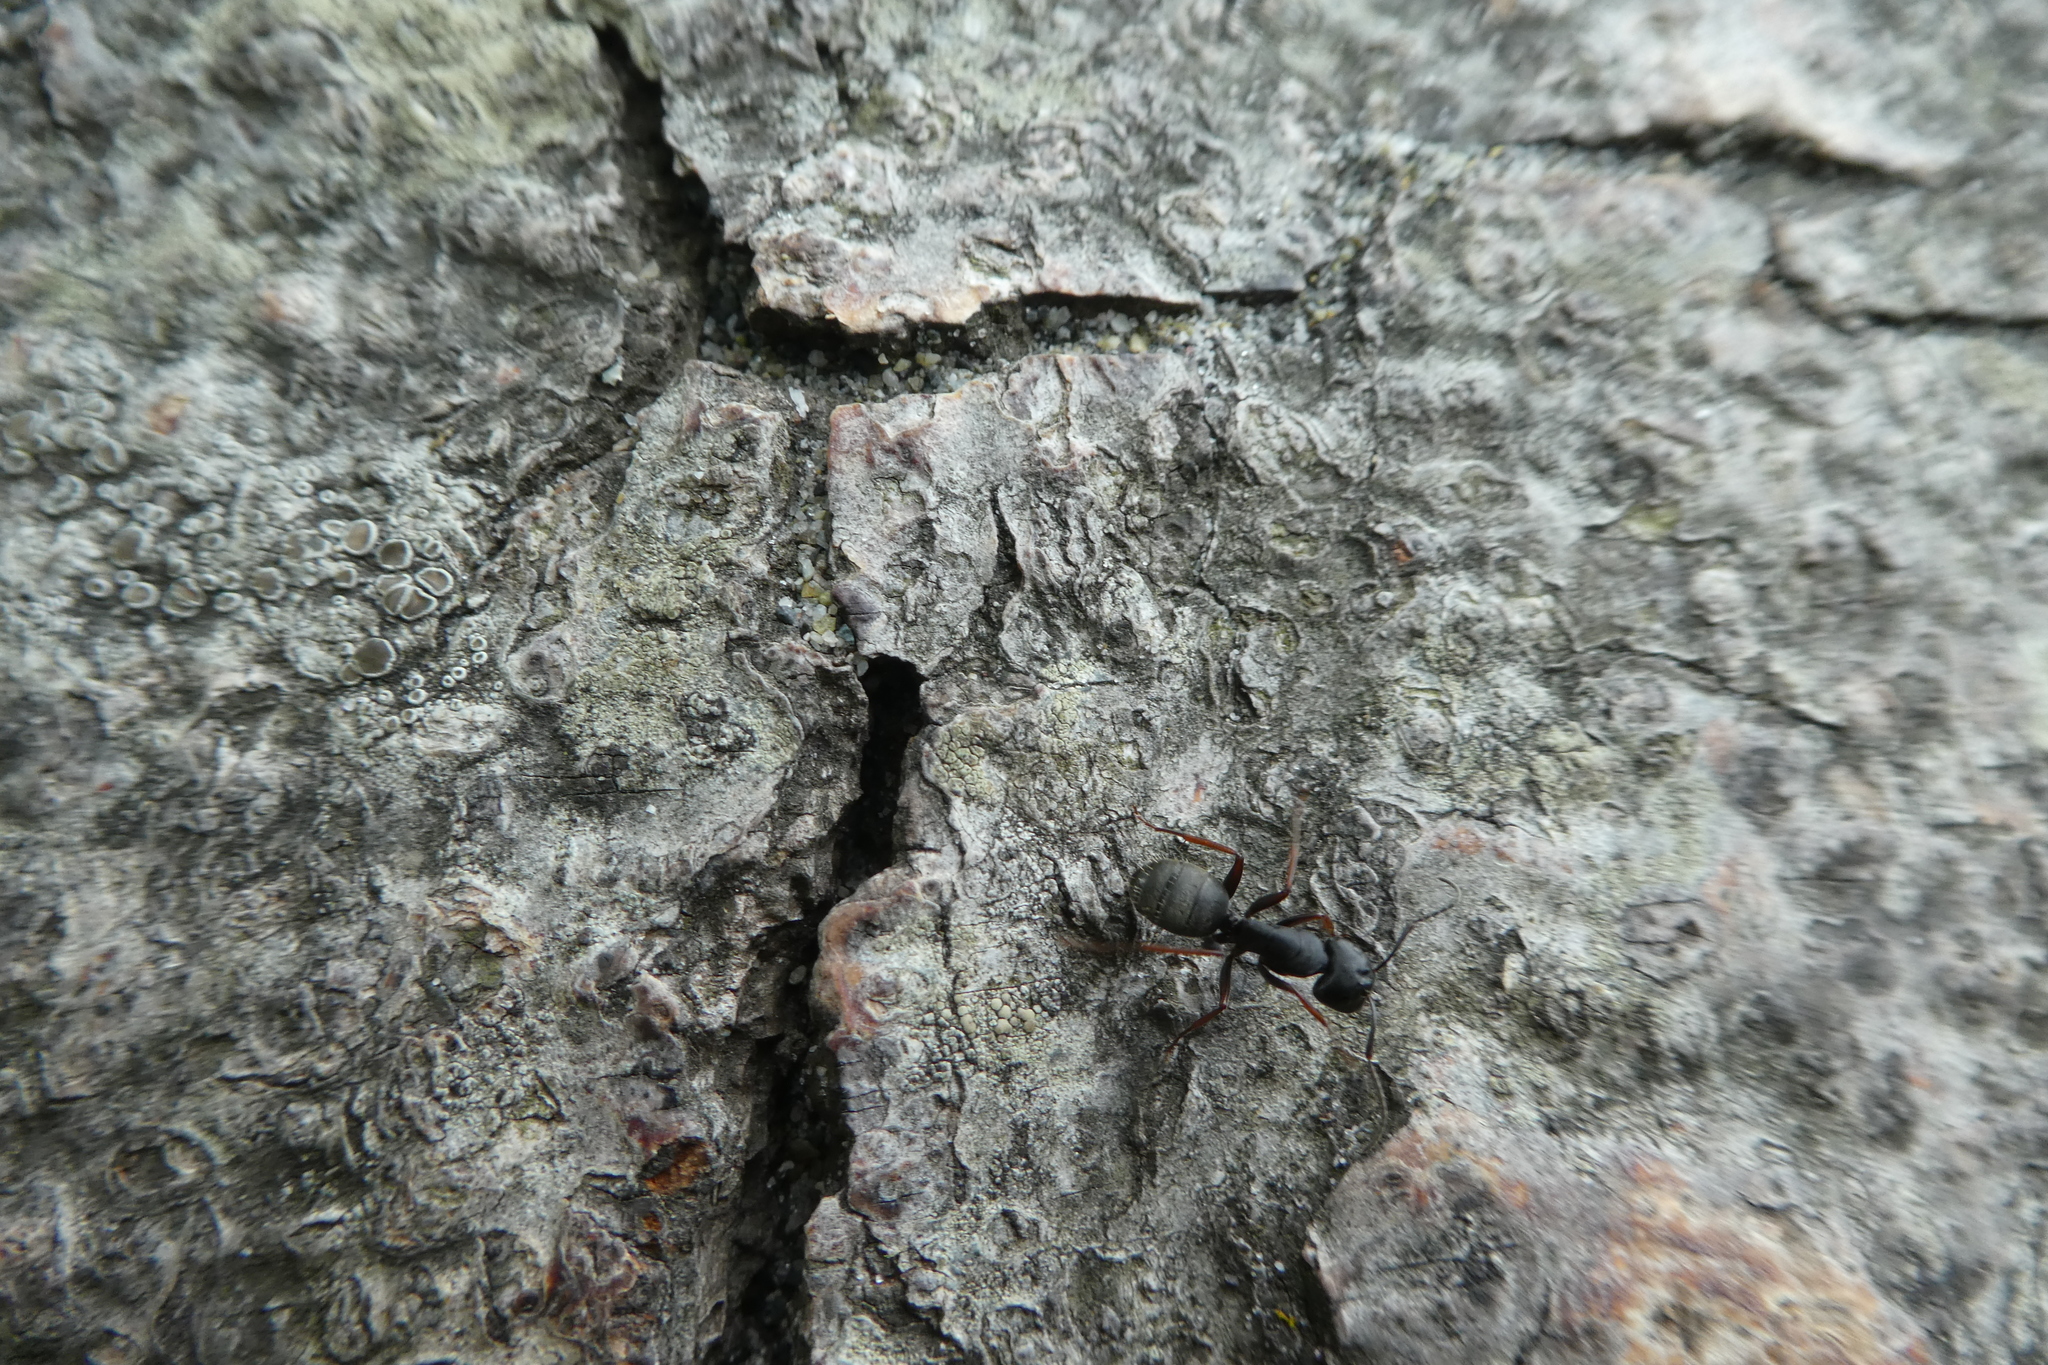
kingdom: Animalia
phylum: Arthropoda
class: Insecta
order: Hymenoptera
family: Formicidae
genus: Camponotus
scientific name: Camponotus modoc
